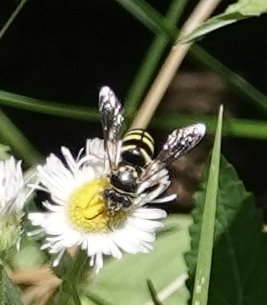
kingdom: Animalia
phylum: Arthropoda
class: Insecta
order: Hymenoptera
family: Crabronidae
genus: Bicyrtes
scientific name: Bicyrtes ventralis
